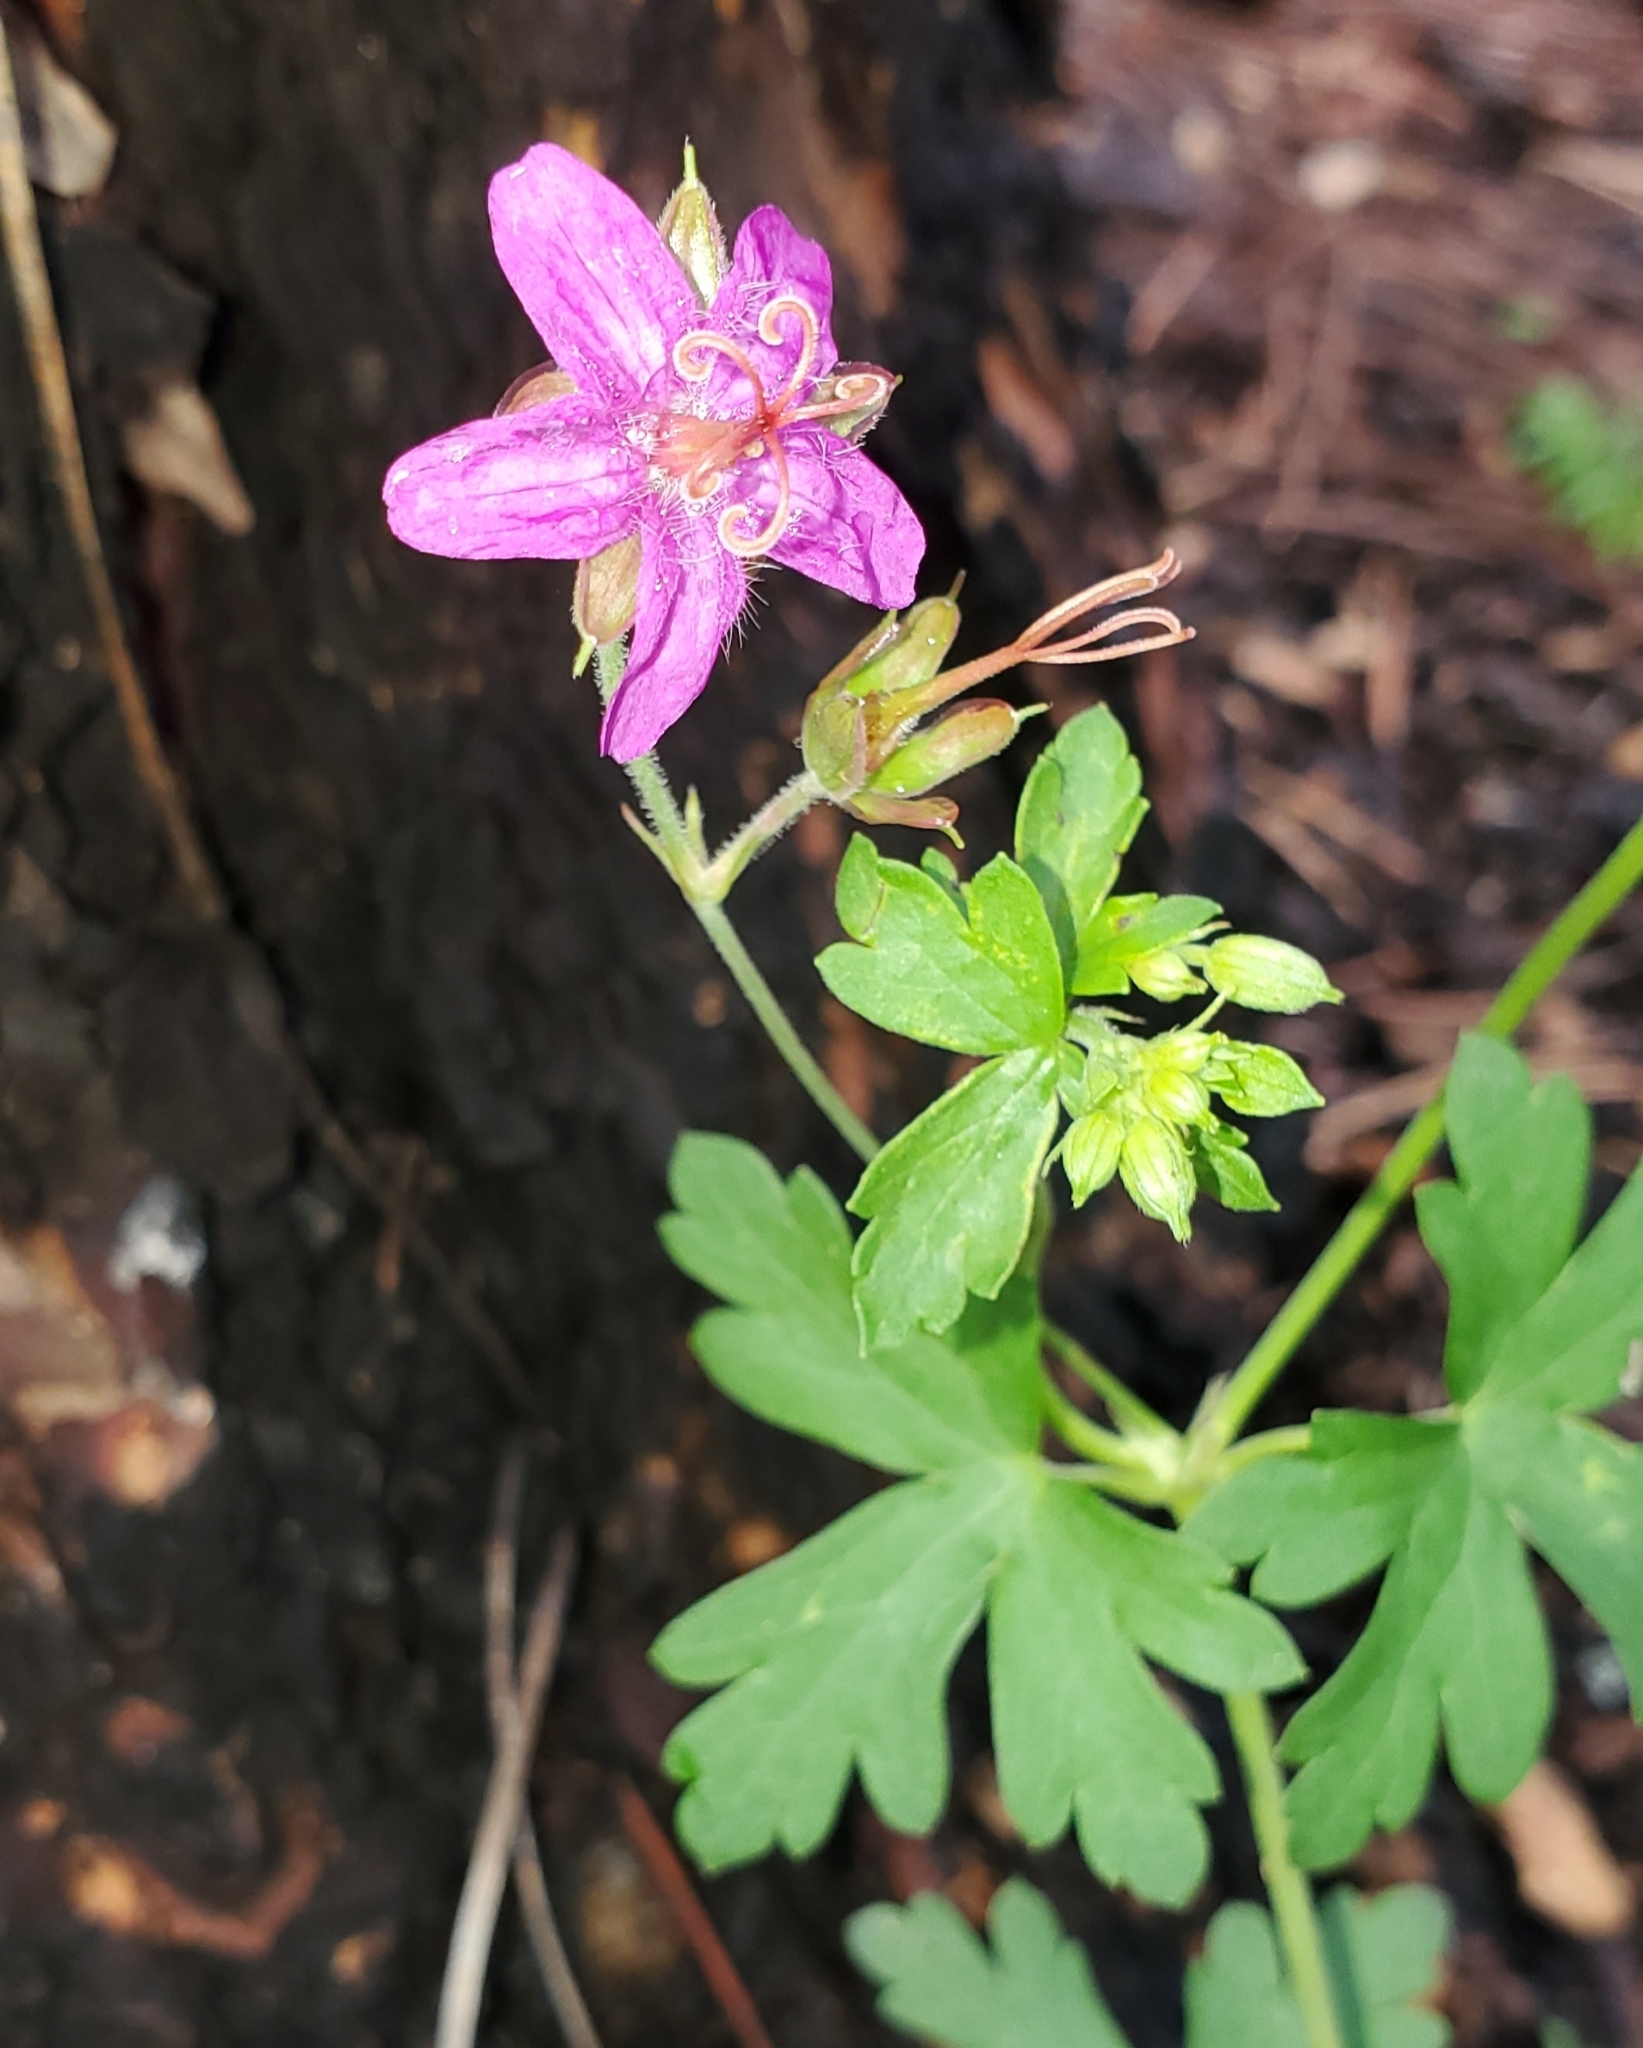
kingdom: Plantae
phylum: Tracheophyta
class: Magnoliopsida
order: Geraniales
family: Geraniaceae
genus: Geranium
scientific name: Geranium caespitosum
